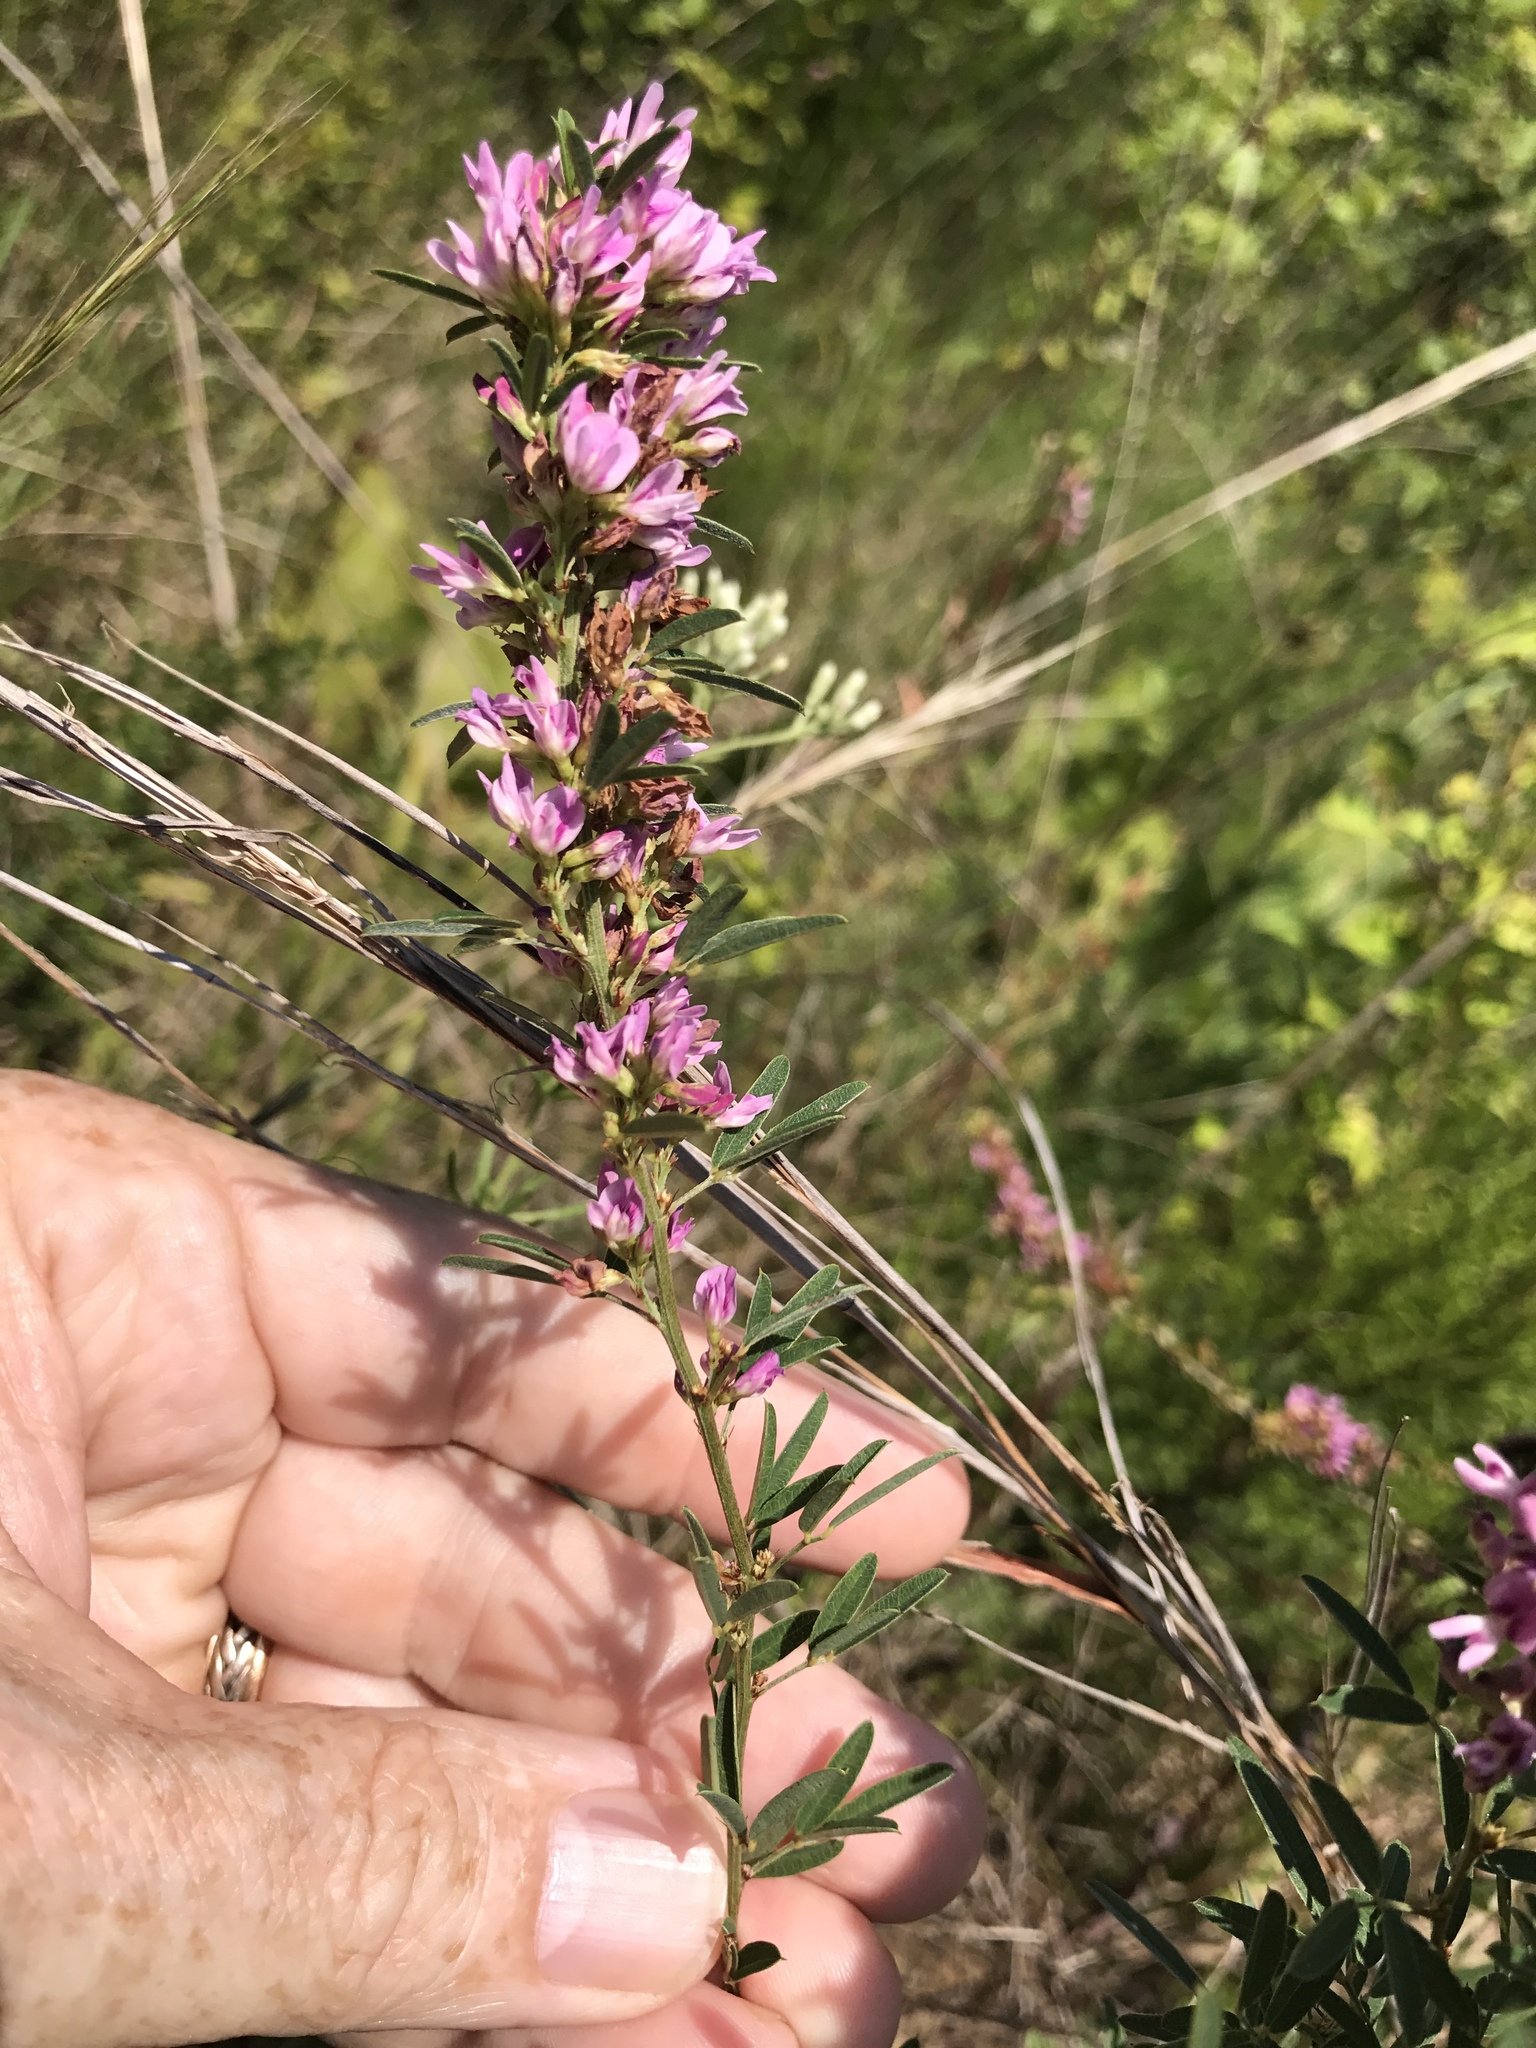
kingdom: Plantae
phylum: Tracheophyta
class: Magnoliopsida
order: Fabales
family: Fabaceae
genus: Lespedeza
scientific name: Lespedeza virginica
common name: Slender bush-clover
